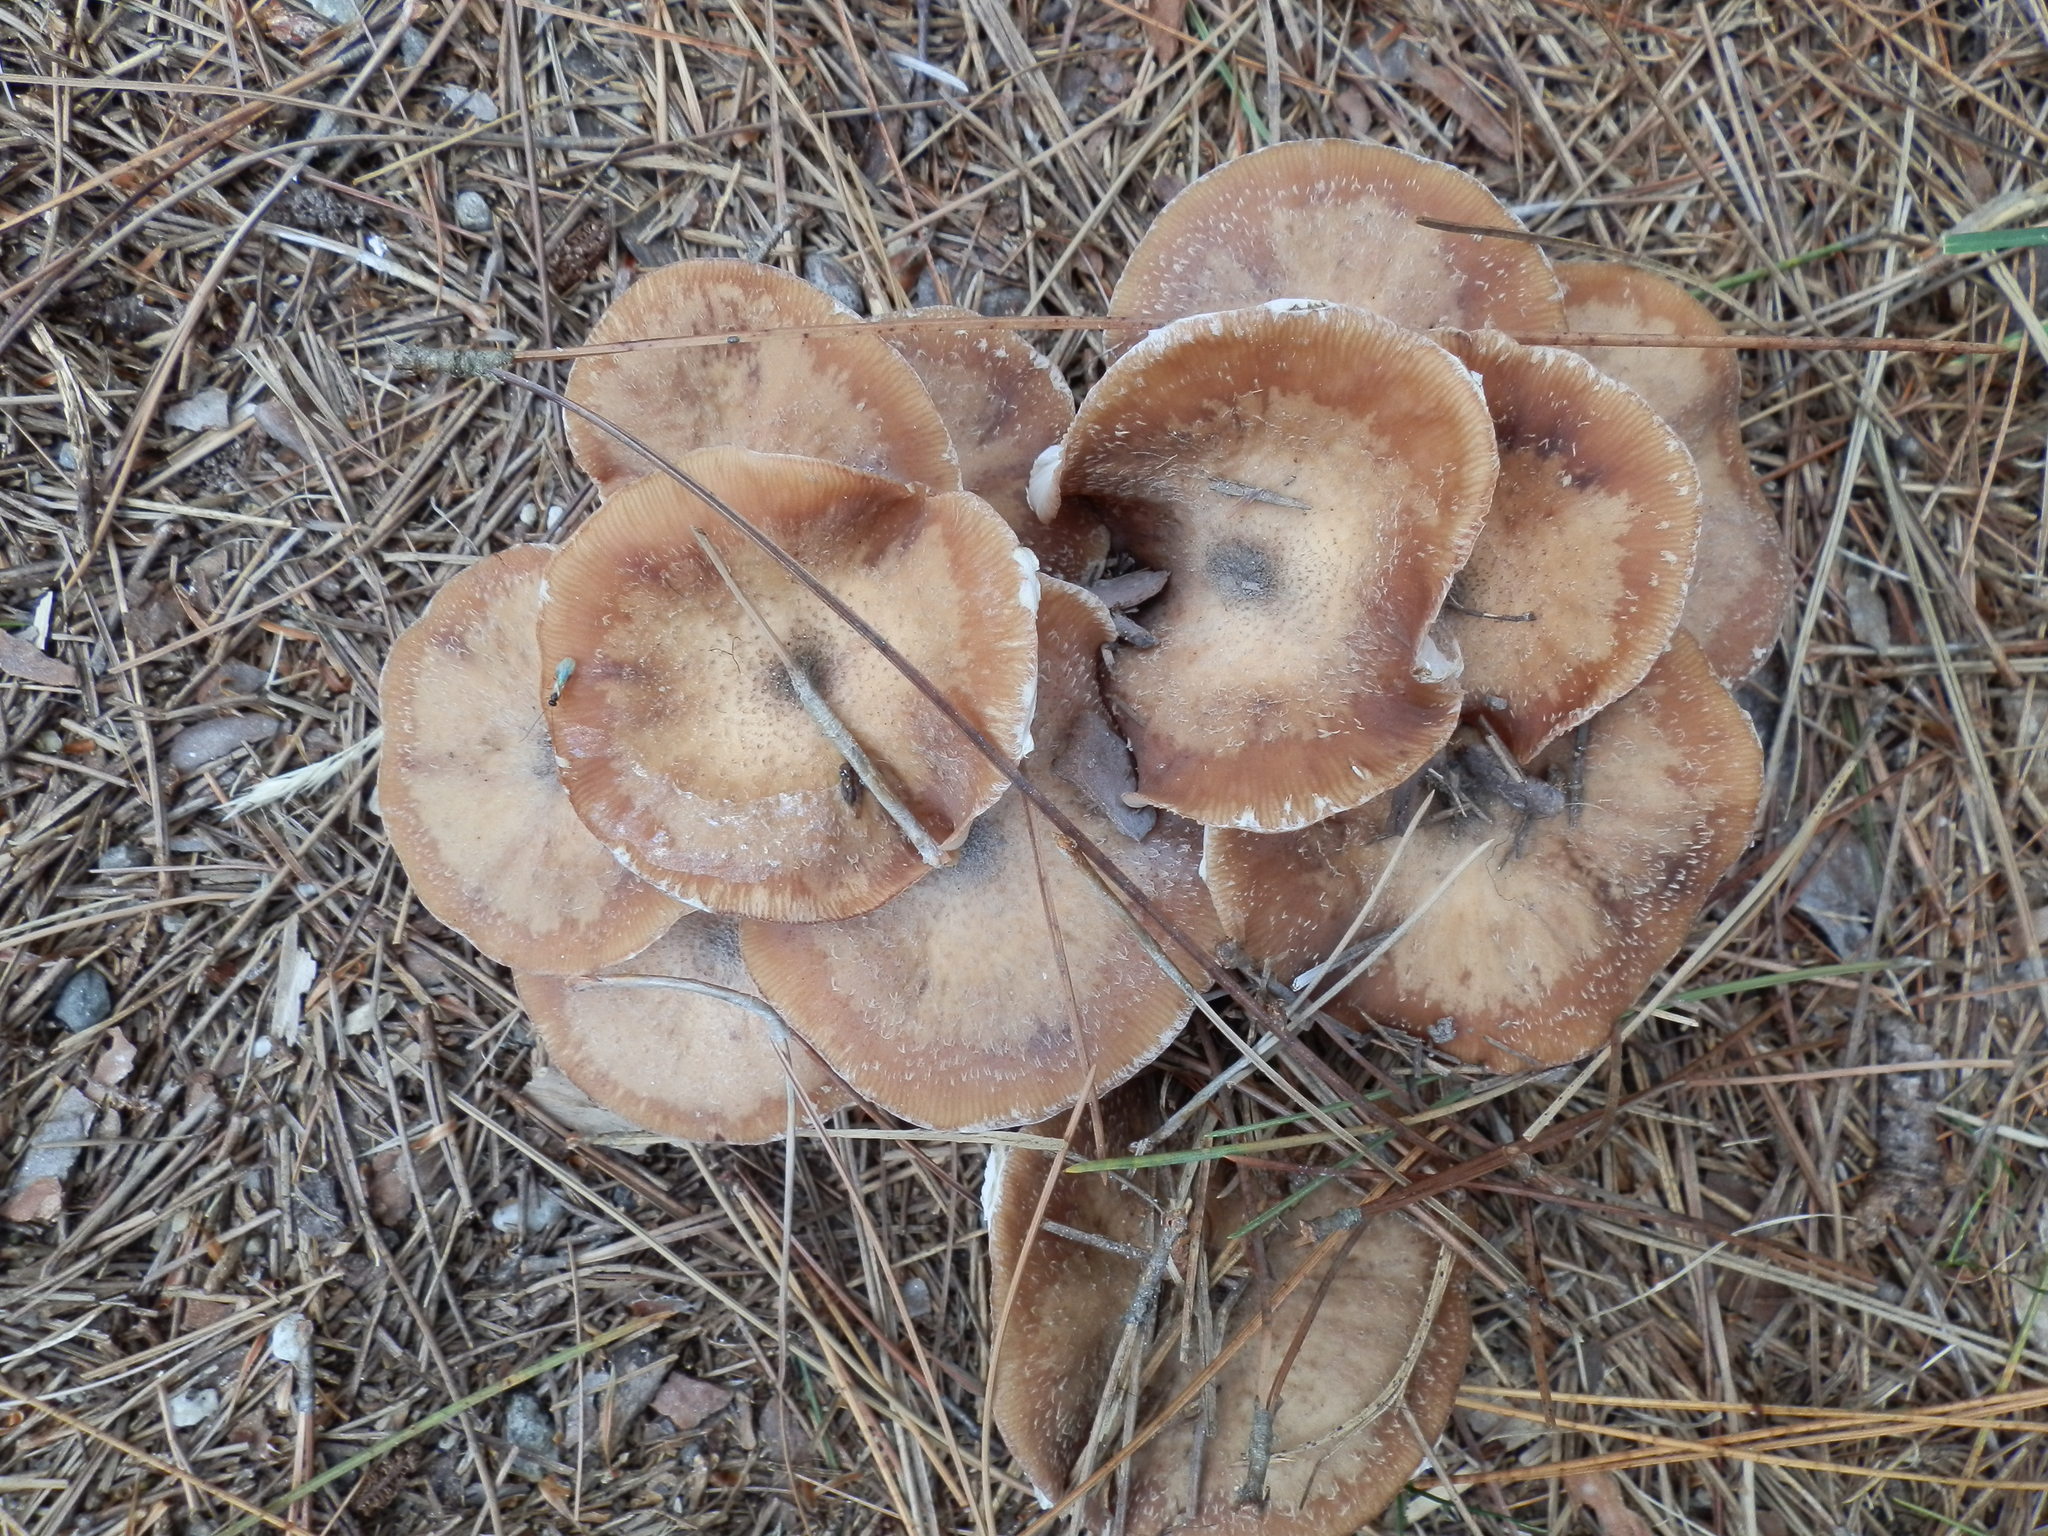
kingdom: Fungi
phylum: Basidiomycota
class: Agaricomycetes
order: Agaricales
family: Physalacriaceae
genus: Armillaria
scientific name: Armillaria gallica
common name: Bulbous honey fungus
